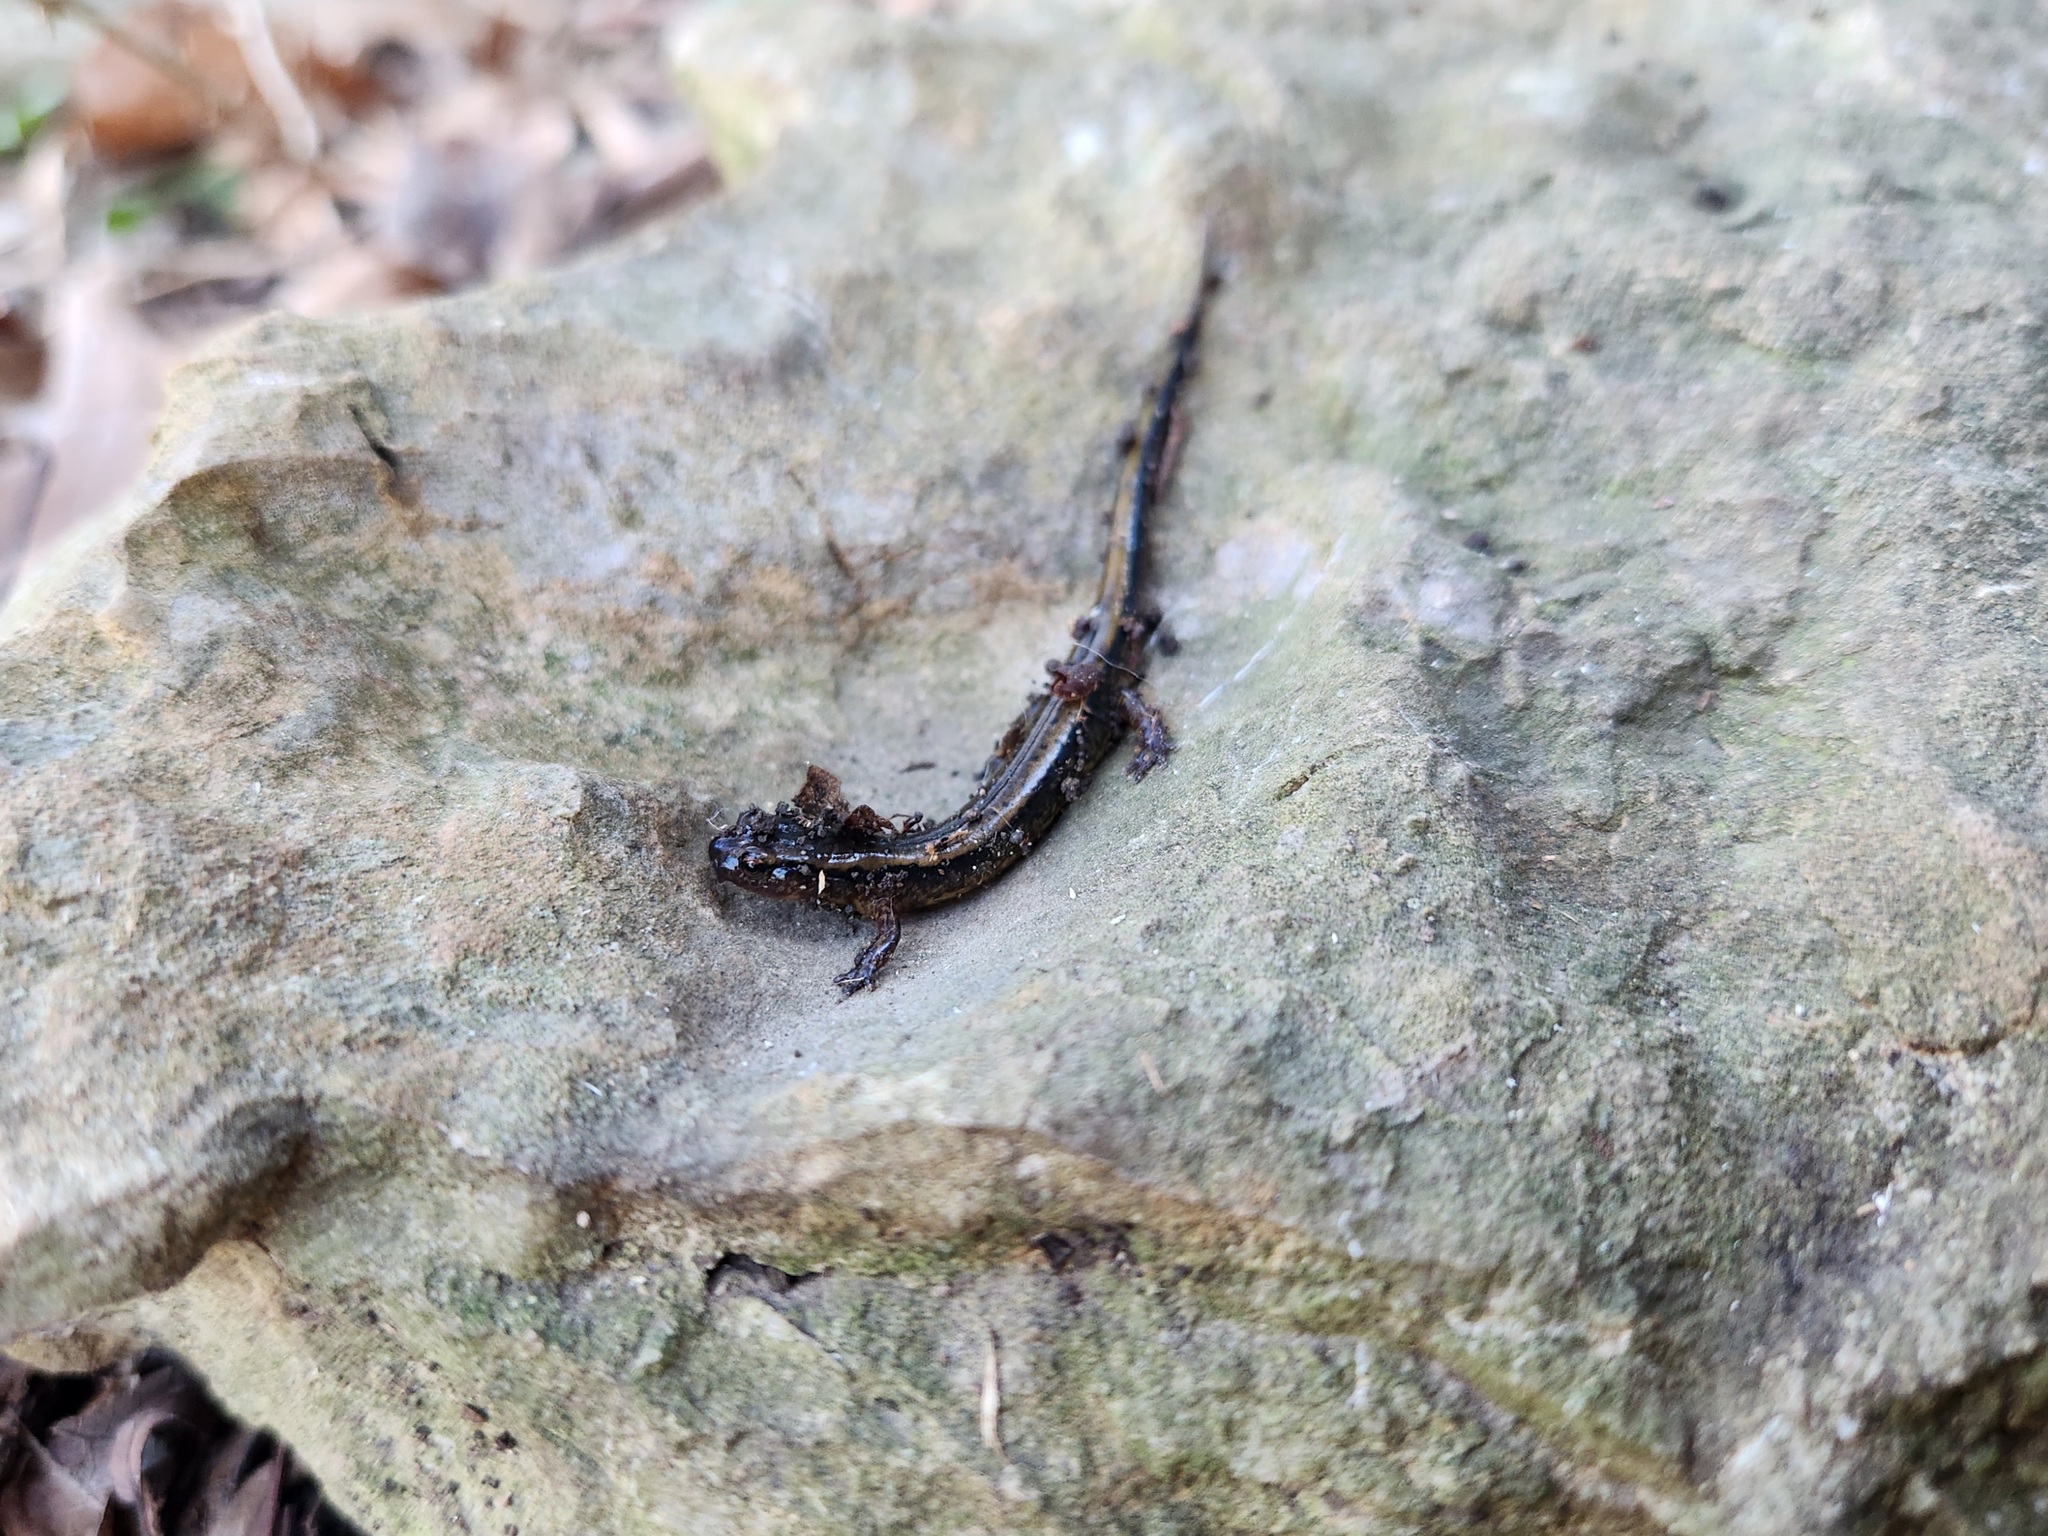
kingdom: Animalia
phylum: Chordata
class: Amphibia
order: Caudata
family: Plethodontidae
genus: Eurycea
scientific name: Eurycea cirrigera
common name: Southern two-lined salamander
